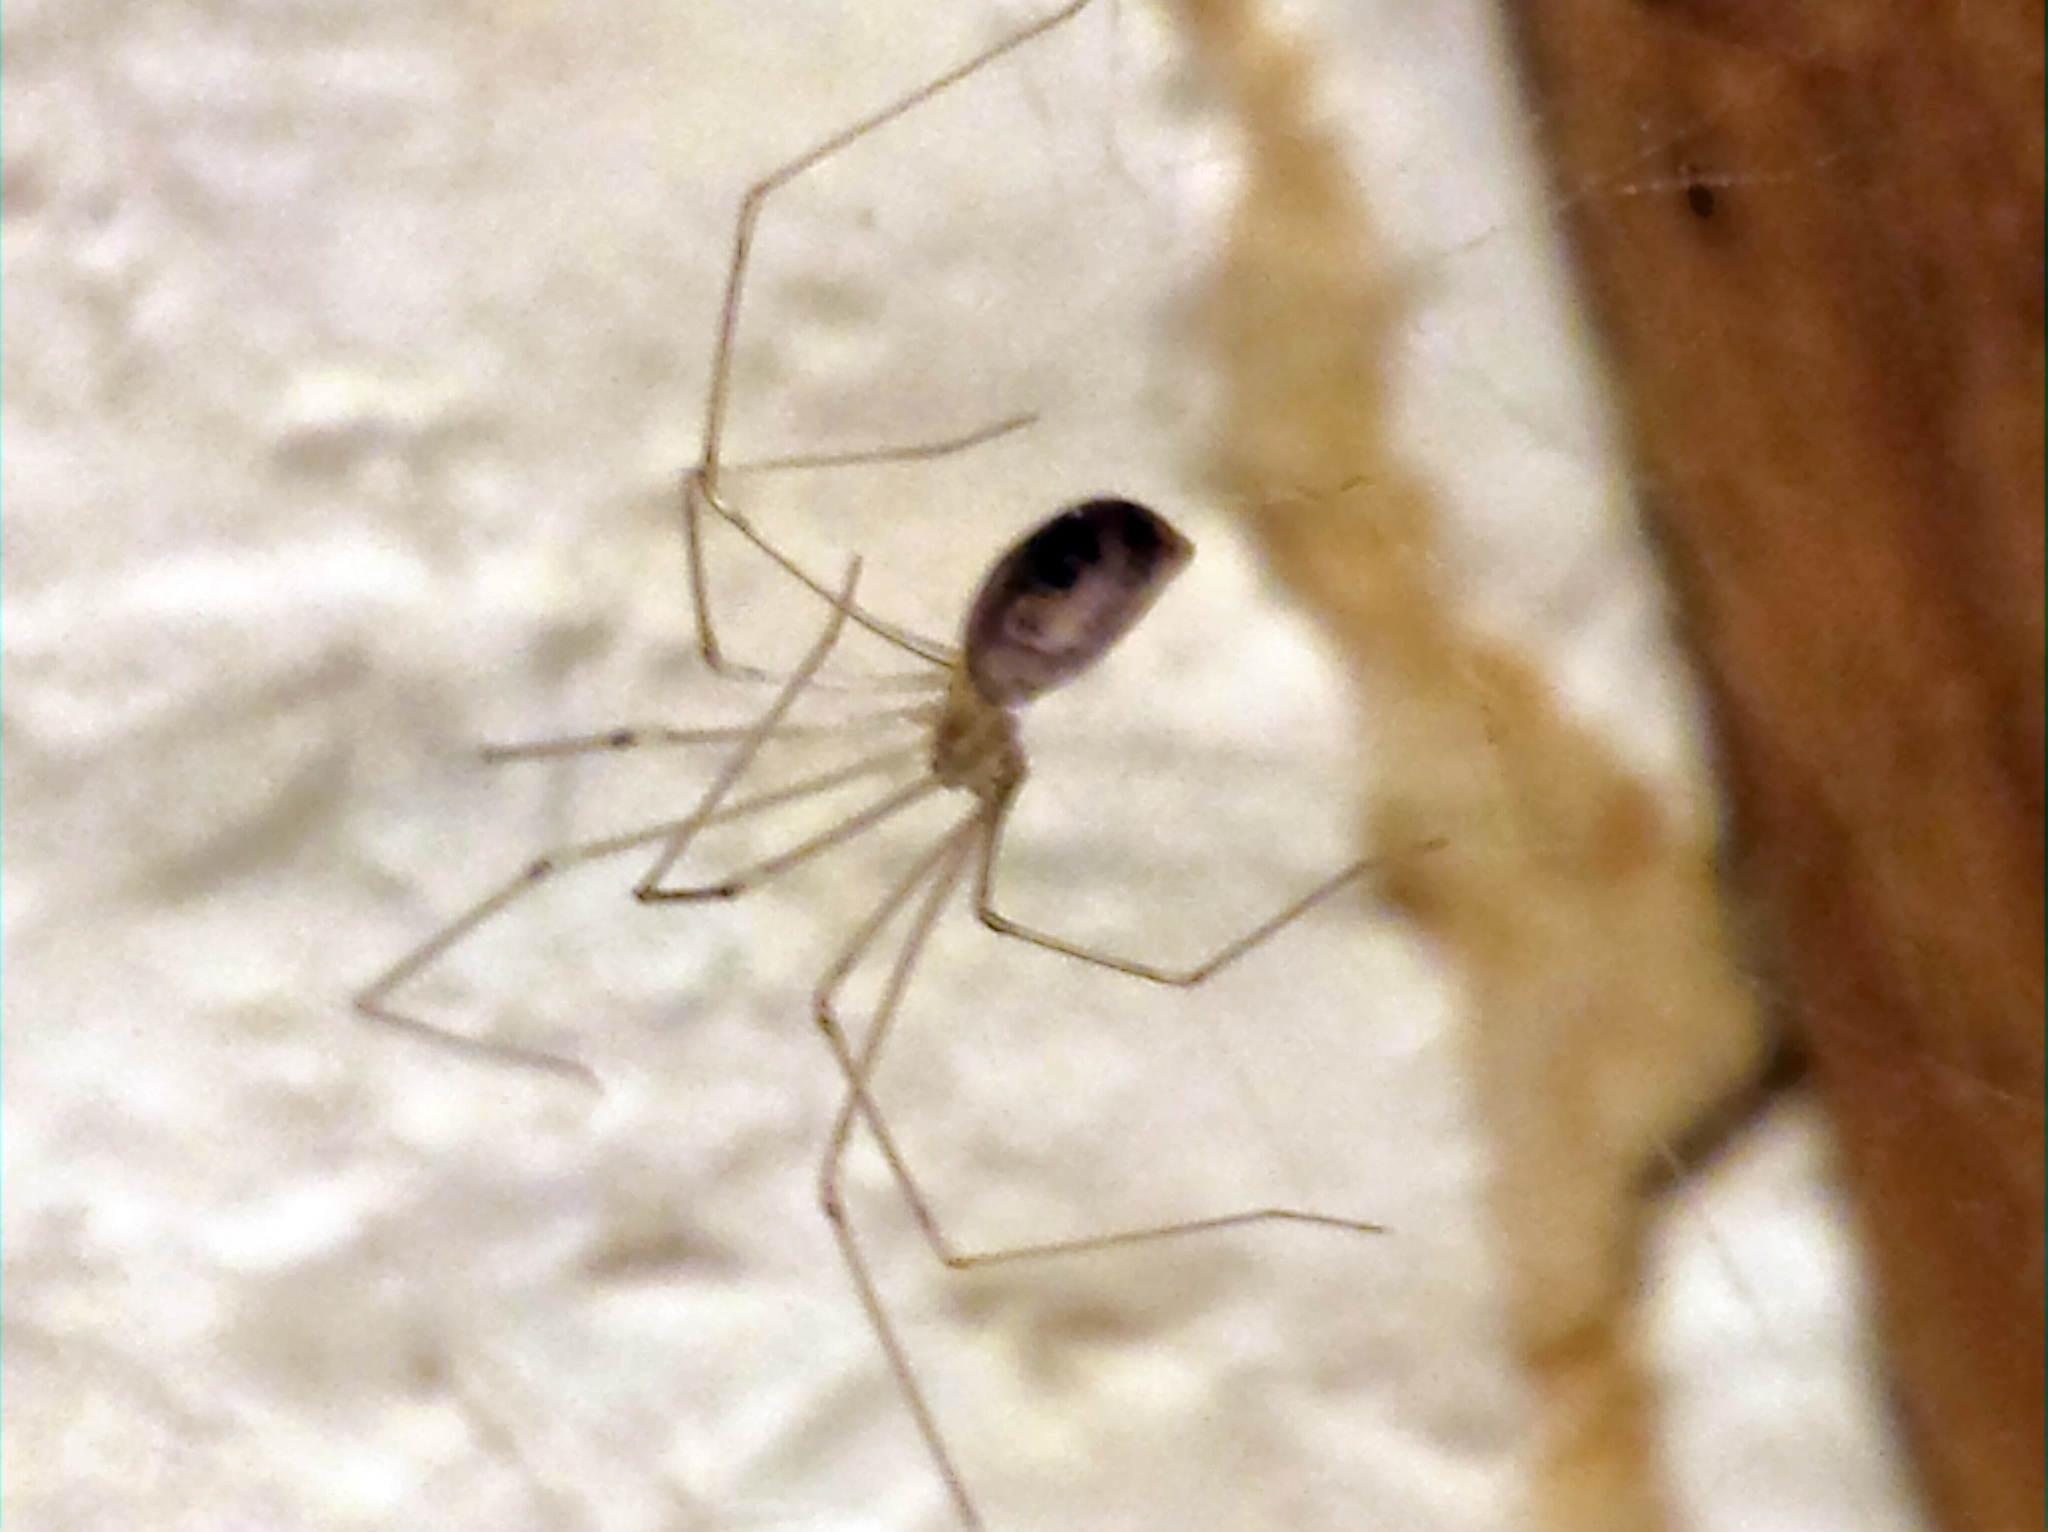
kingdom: Animalia
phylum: Arthropoda
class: Arachnida
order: Araneae
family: Pholcidae
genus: Pholcus
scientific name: Pholcus phalangioides
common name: Longbodied cellar spider
